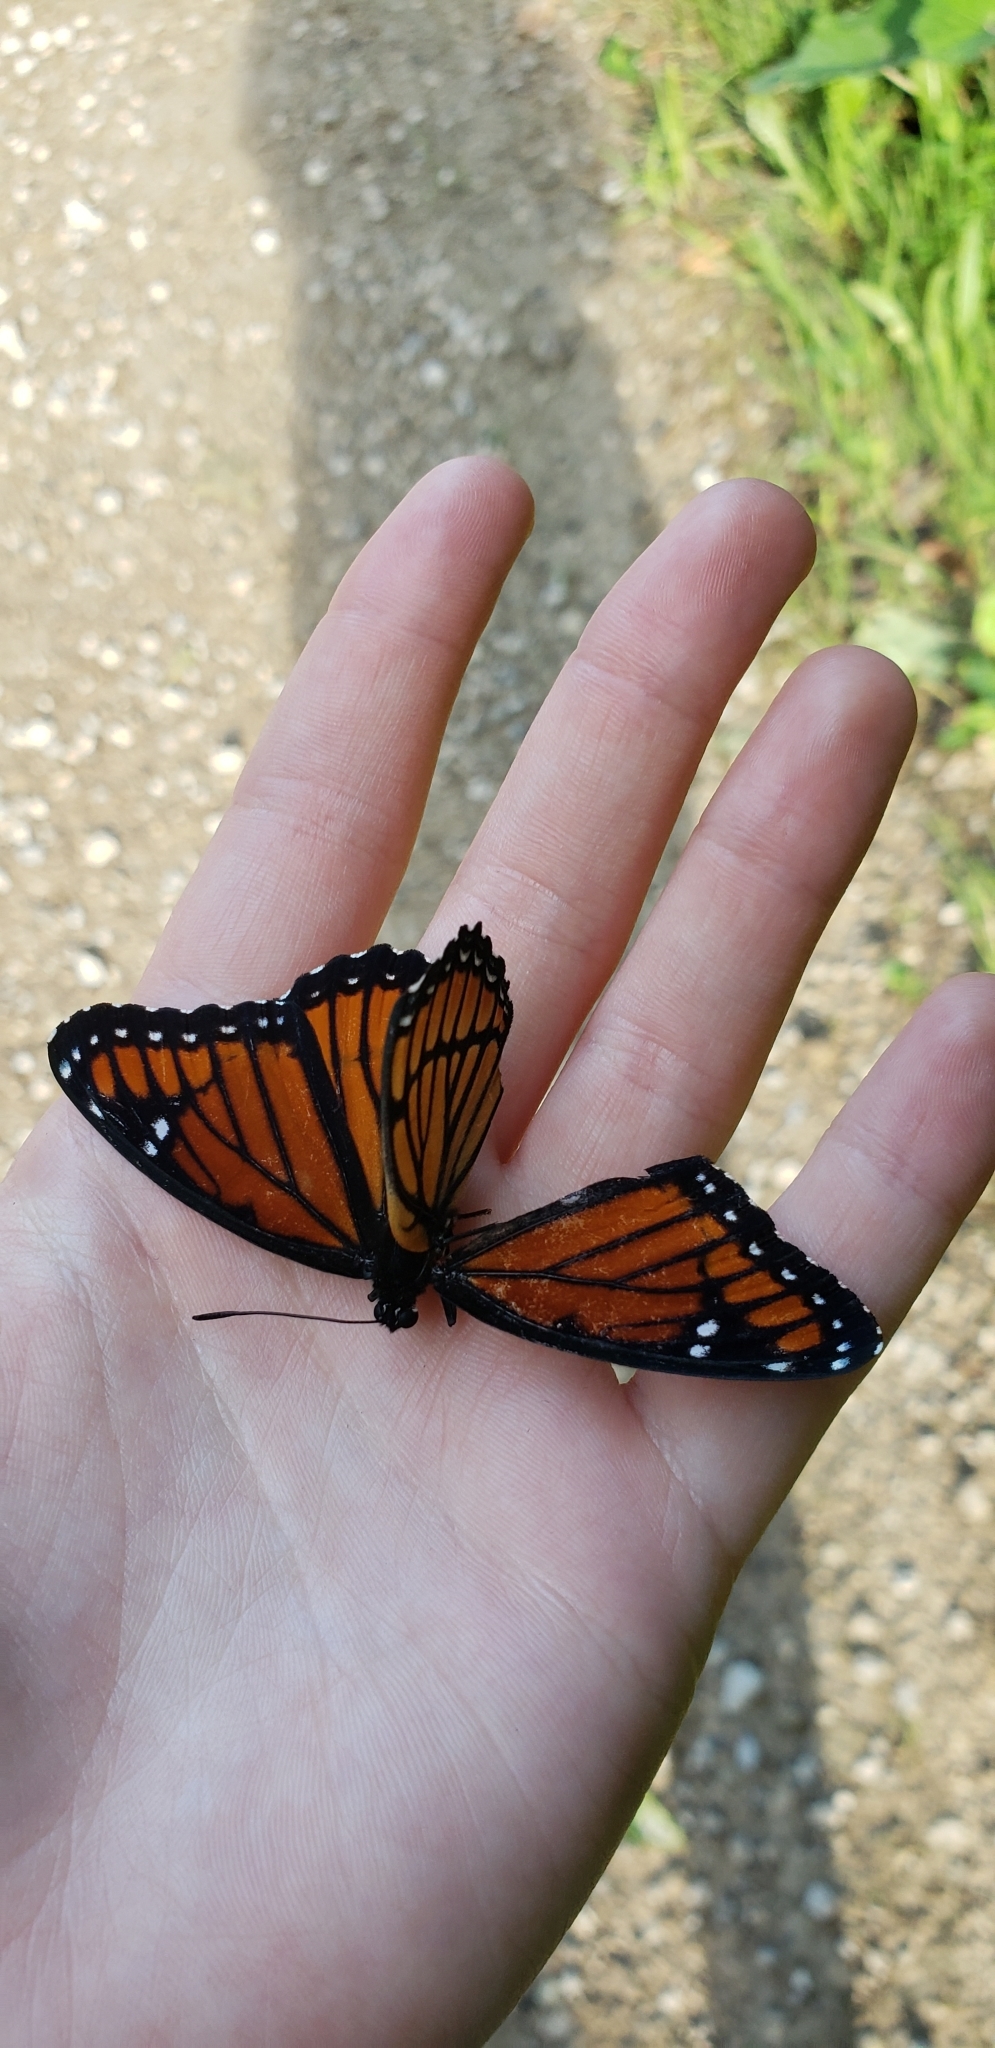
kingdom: Animalia
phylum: Arthropoda
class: Insecta
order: Lepidoptera
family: Nymphalidae
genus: Limenitis
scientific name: Limenitis archippus
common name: Viceroy
